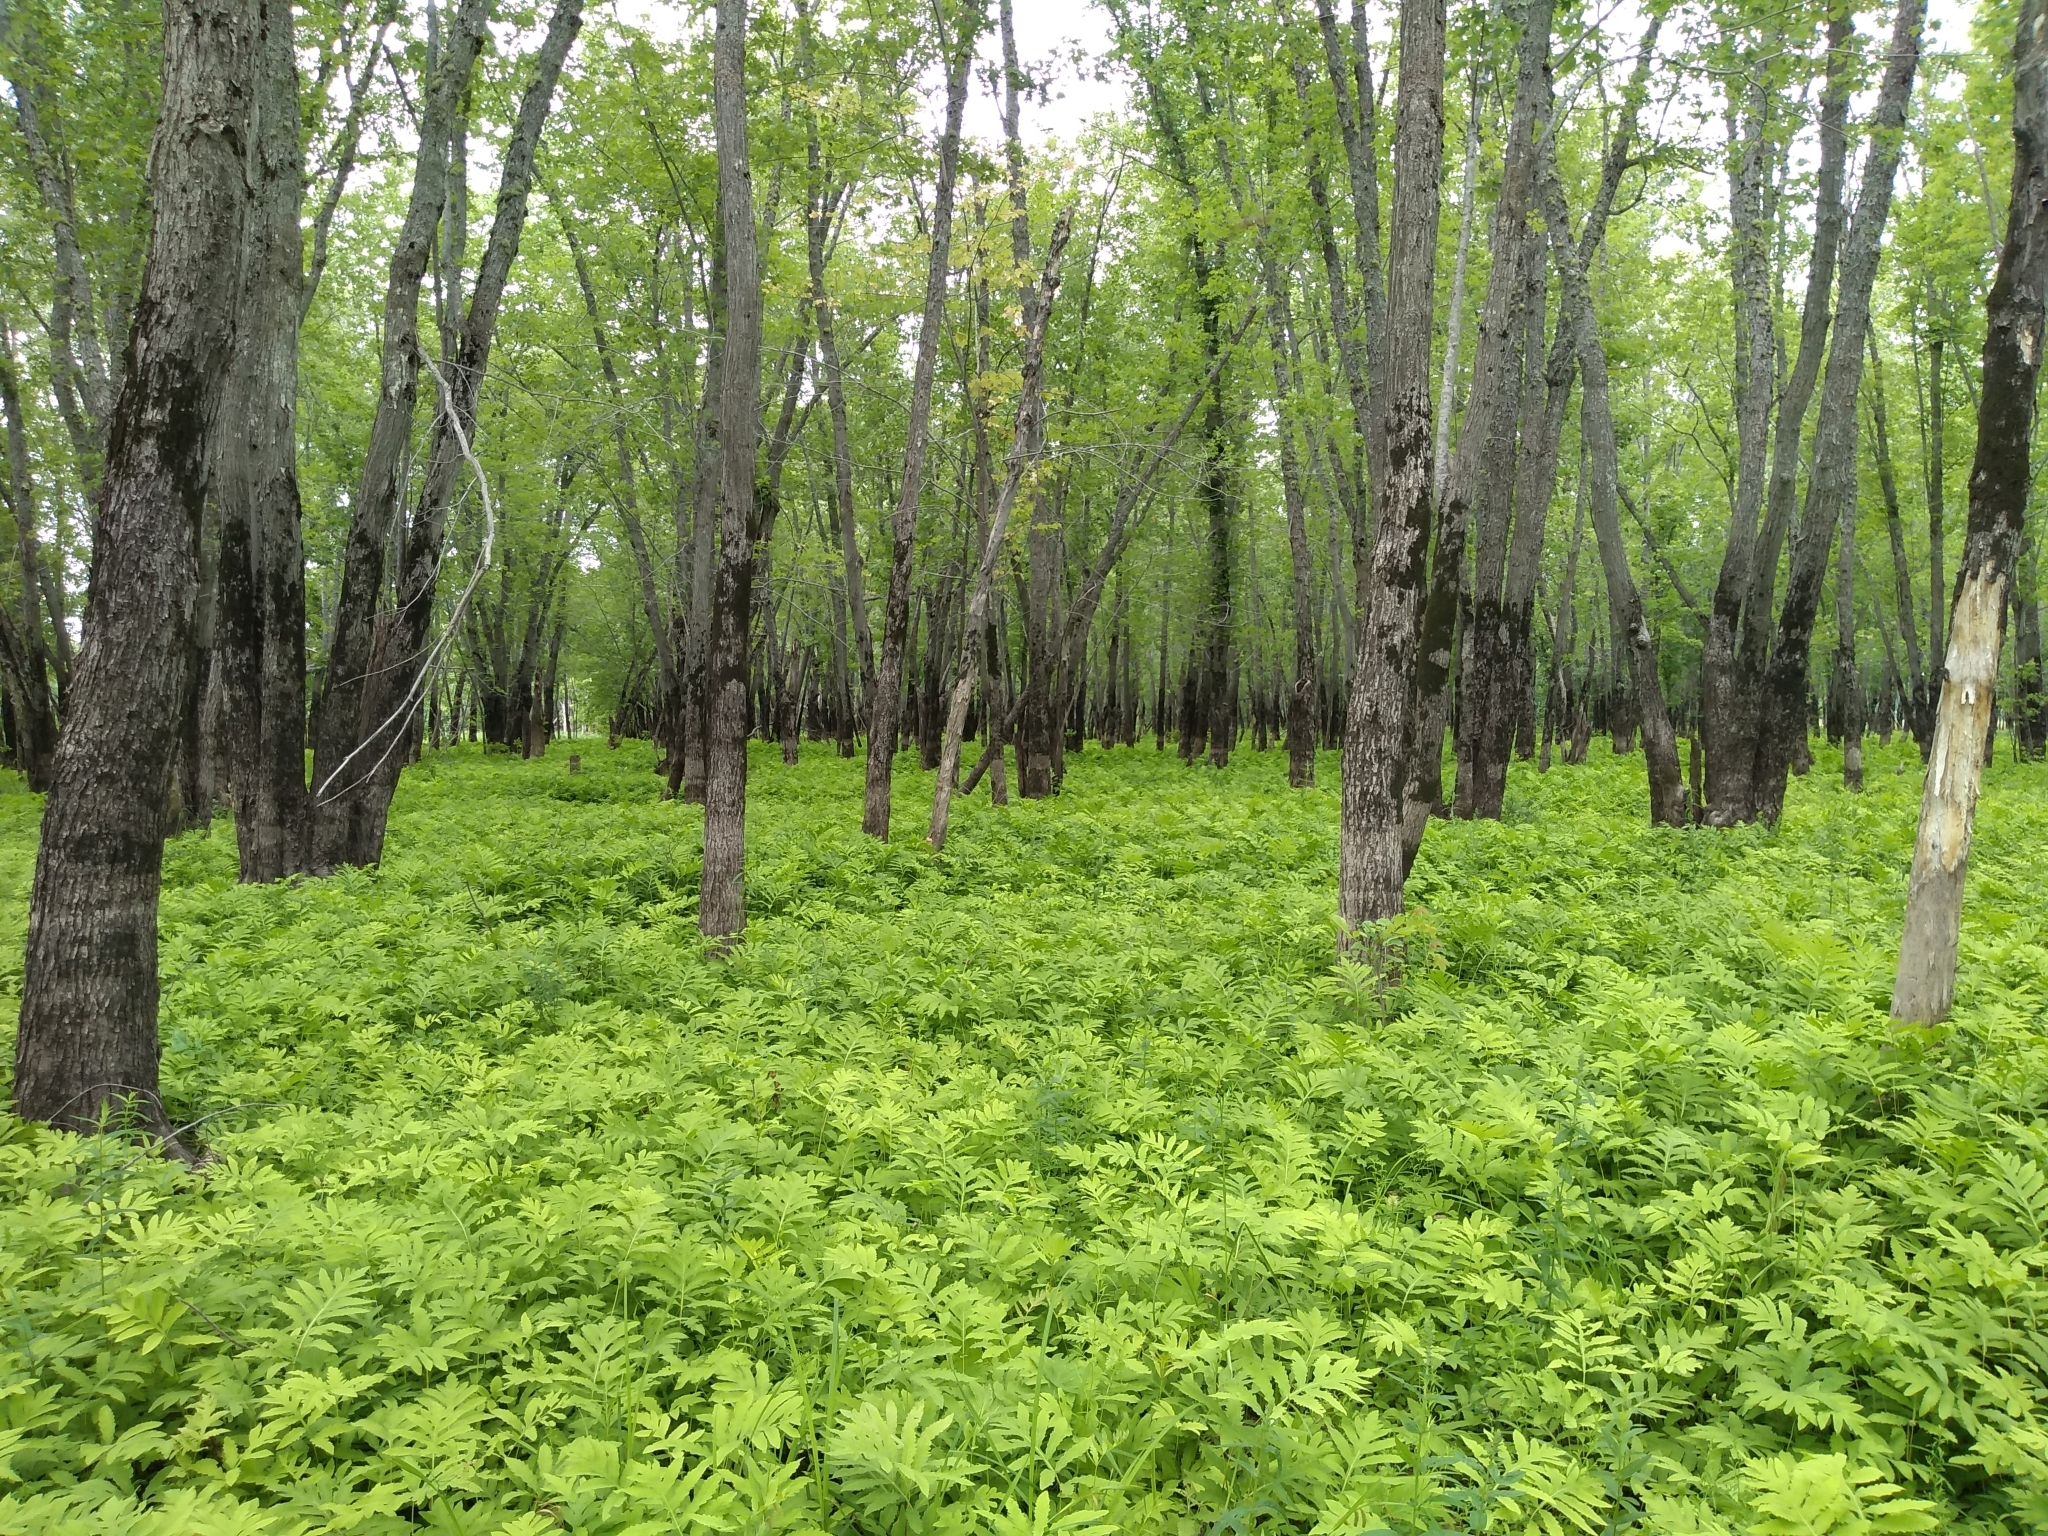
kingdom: Plantae
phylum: Tracheophyta
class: Polypodiopsida
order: Polypodiales
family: Onocleaceae
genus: Onoclea
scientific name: Onoclea sensibilis
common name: Sensitive fern
